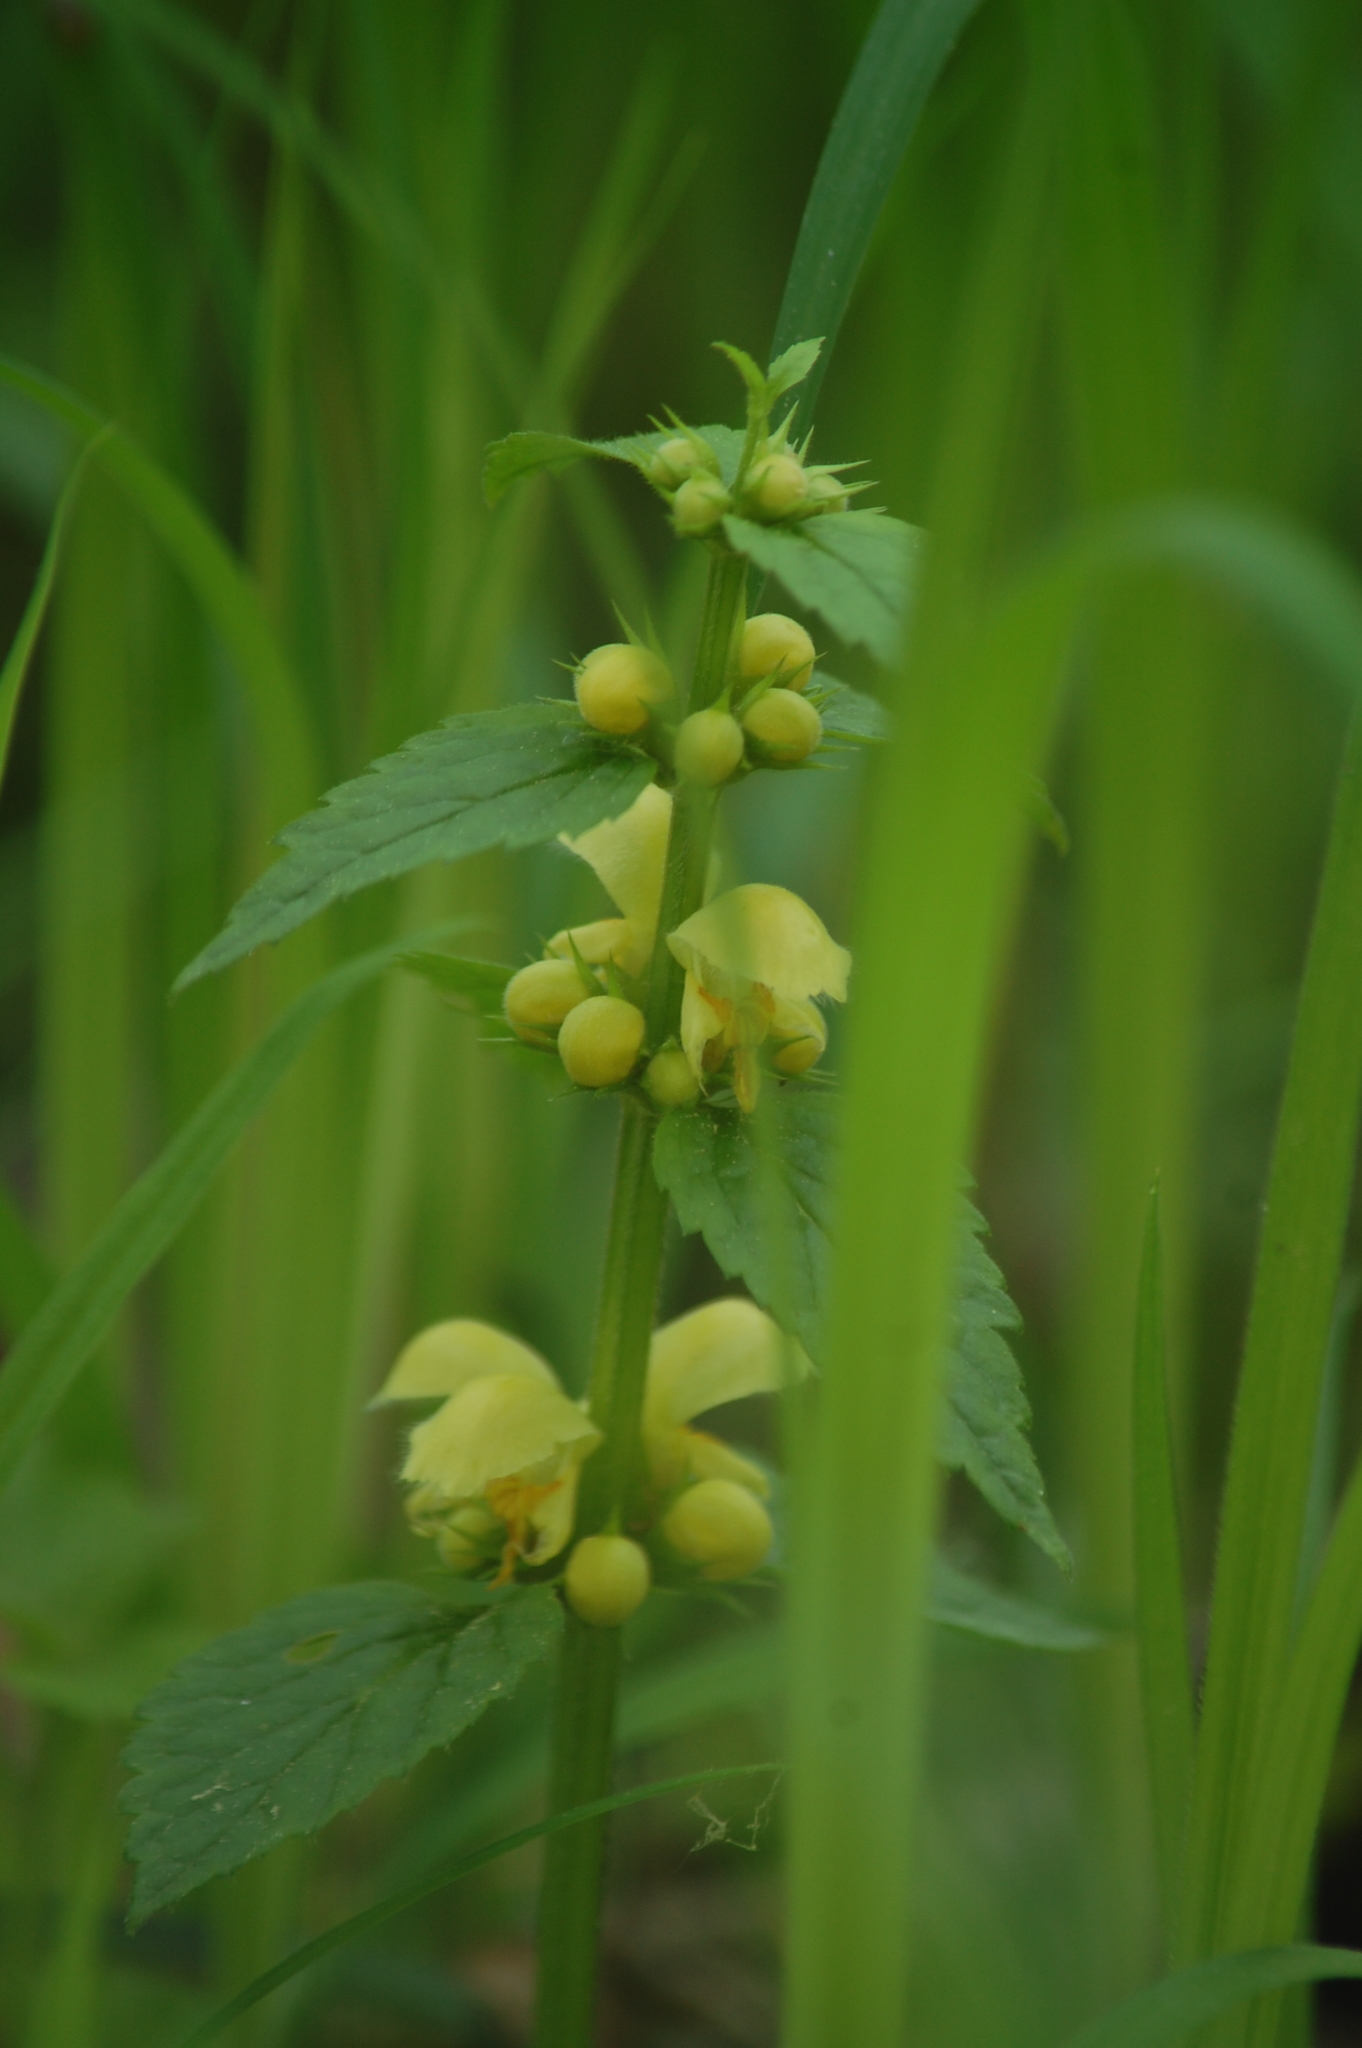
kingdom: Plantae
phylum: Tracheophyta
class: Magnoliopsida
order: Lamiales
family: Lamiaceae
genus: Lamium
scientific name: Lamium galeobdolon
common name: Yellow archangel
